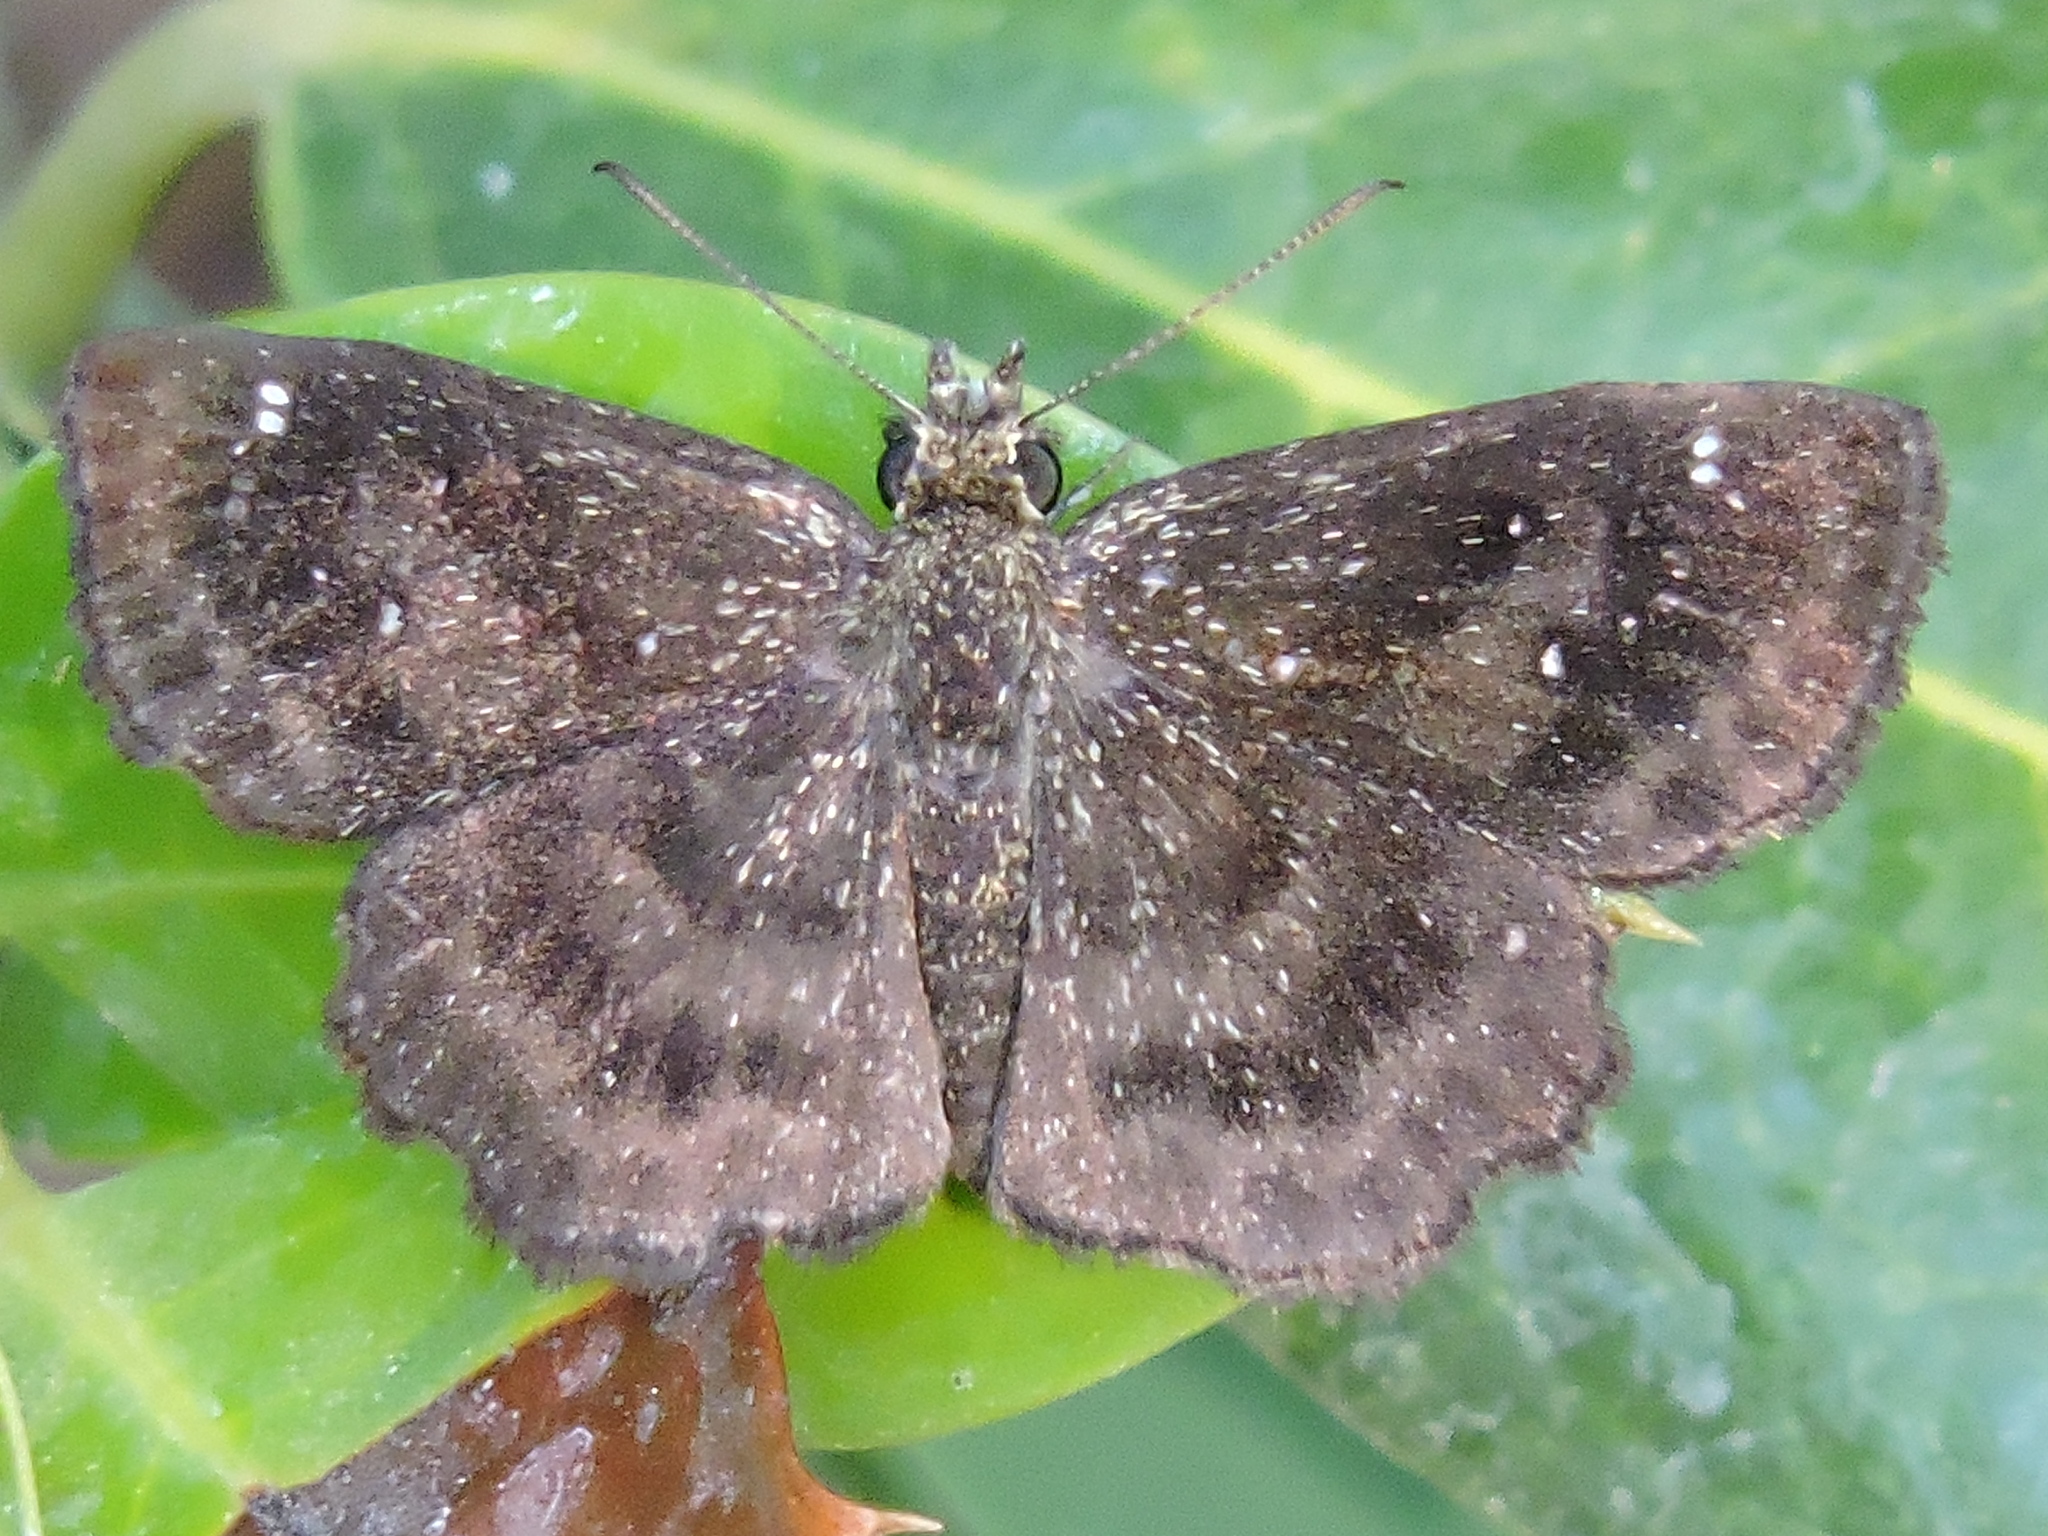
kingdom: Animalia
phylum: Arthropoda
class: Insecta
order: Lepidoptera
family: Hesperiidae
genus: Staphylus
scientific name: Staphylus mazans
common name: Mazans scallopwing
